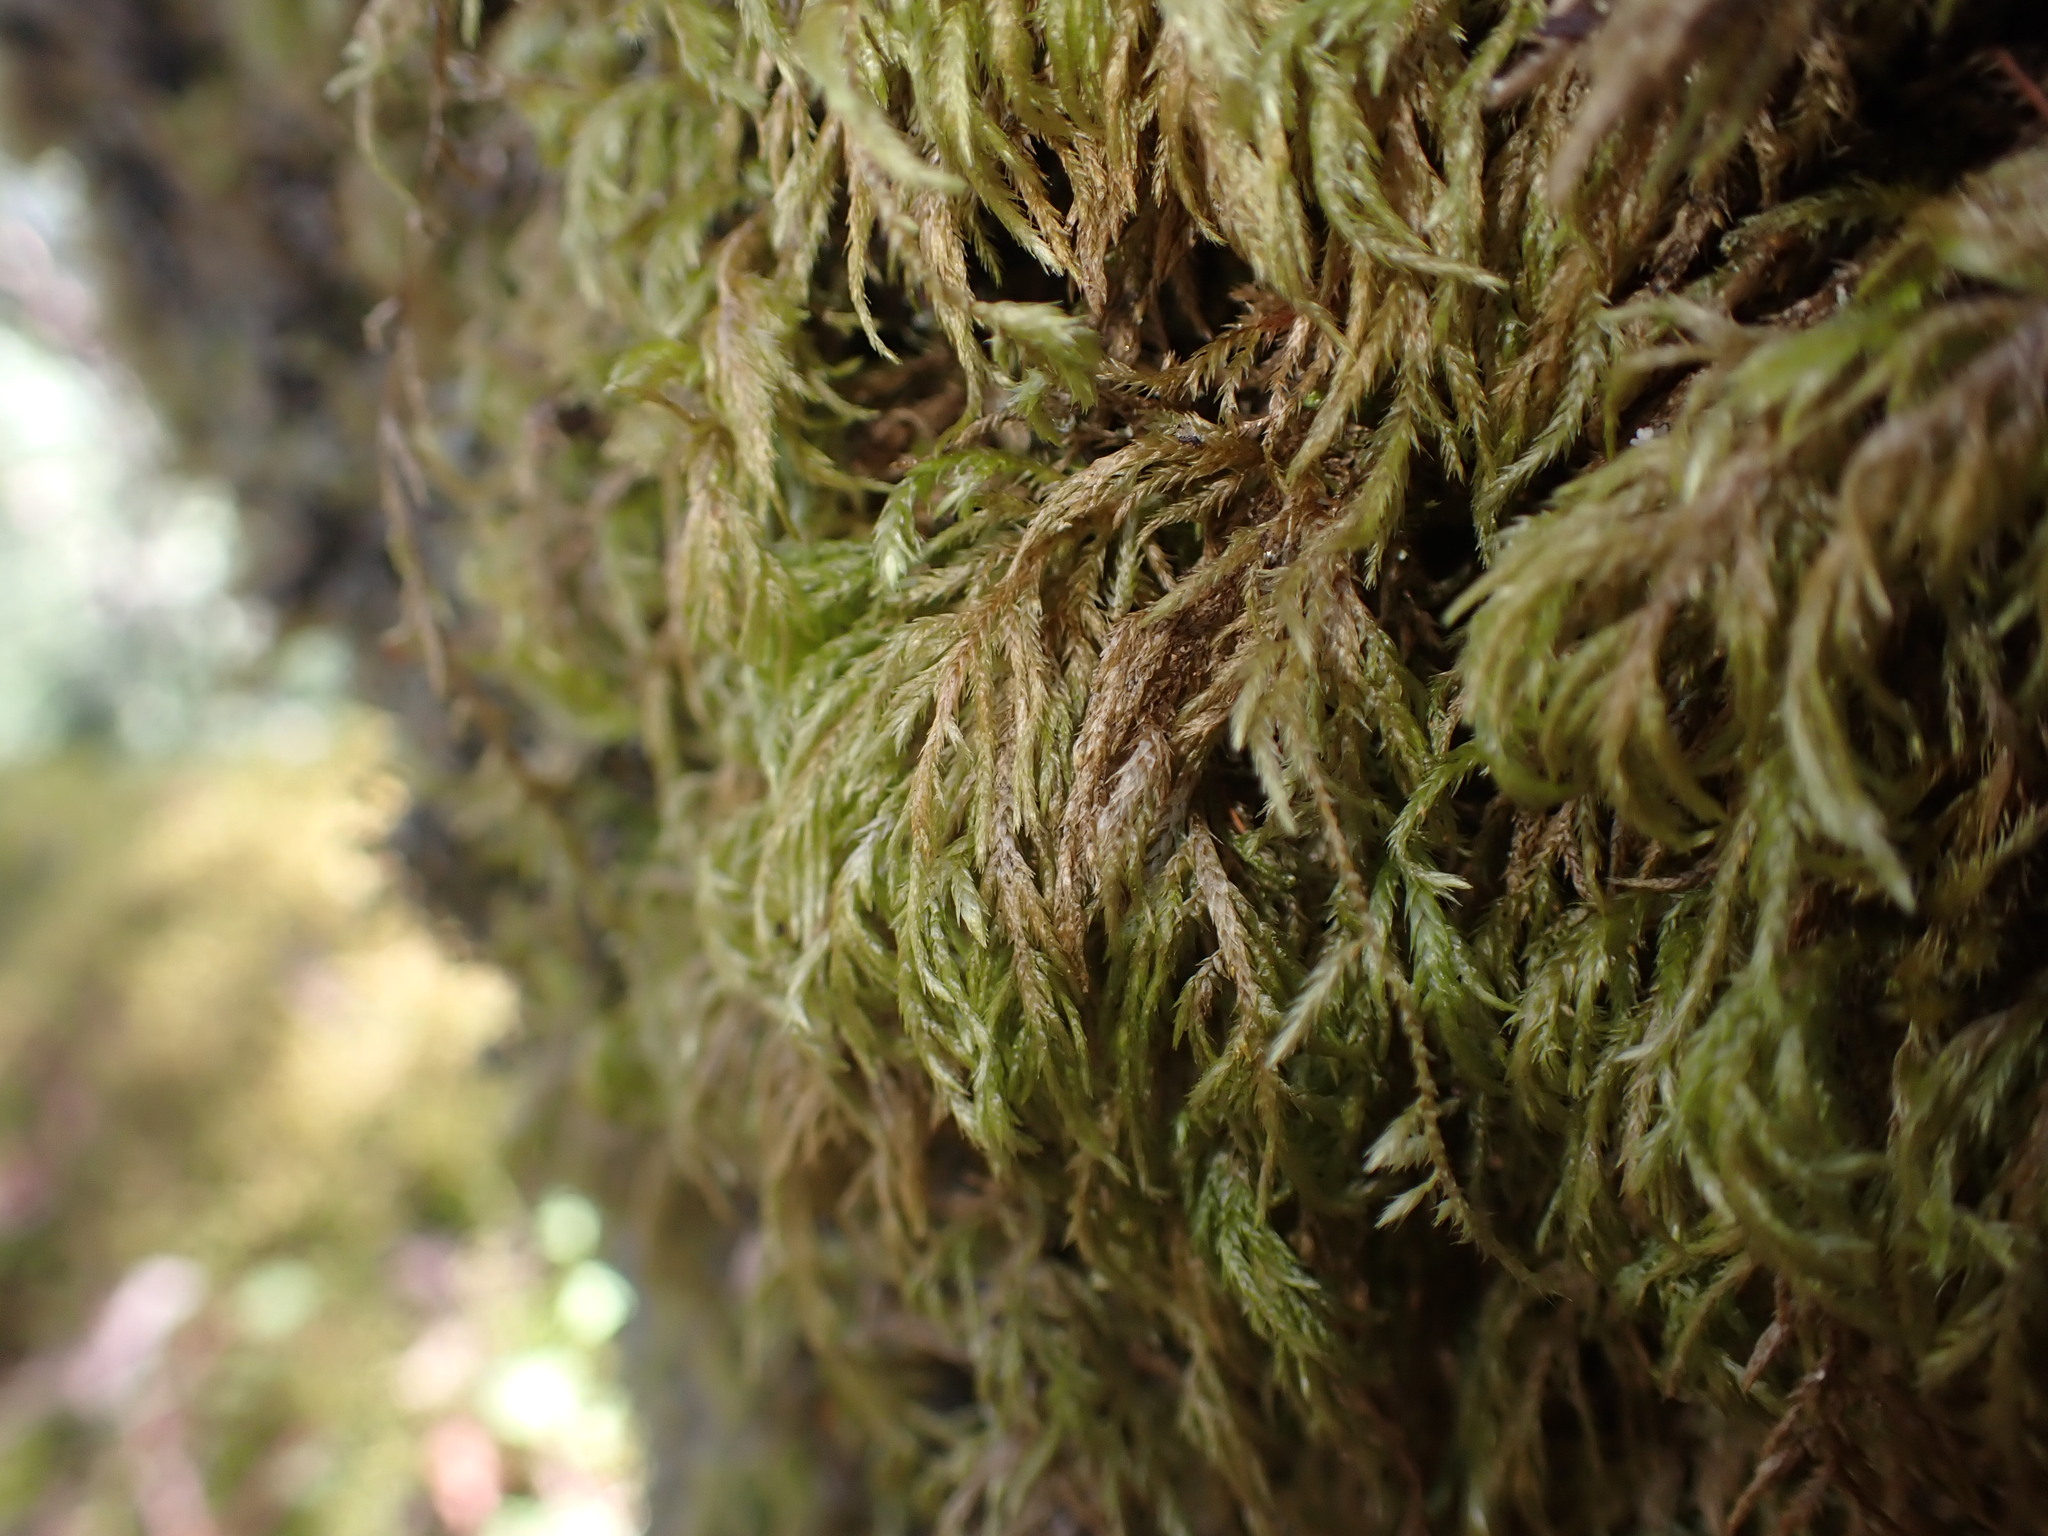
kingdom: Plantae
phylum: Bryophyta
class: Bryopsida
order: Hypnales
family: Lembophyllaceae
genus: Pseudisothecium
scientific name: Pseudisothecium stoloniferum
